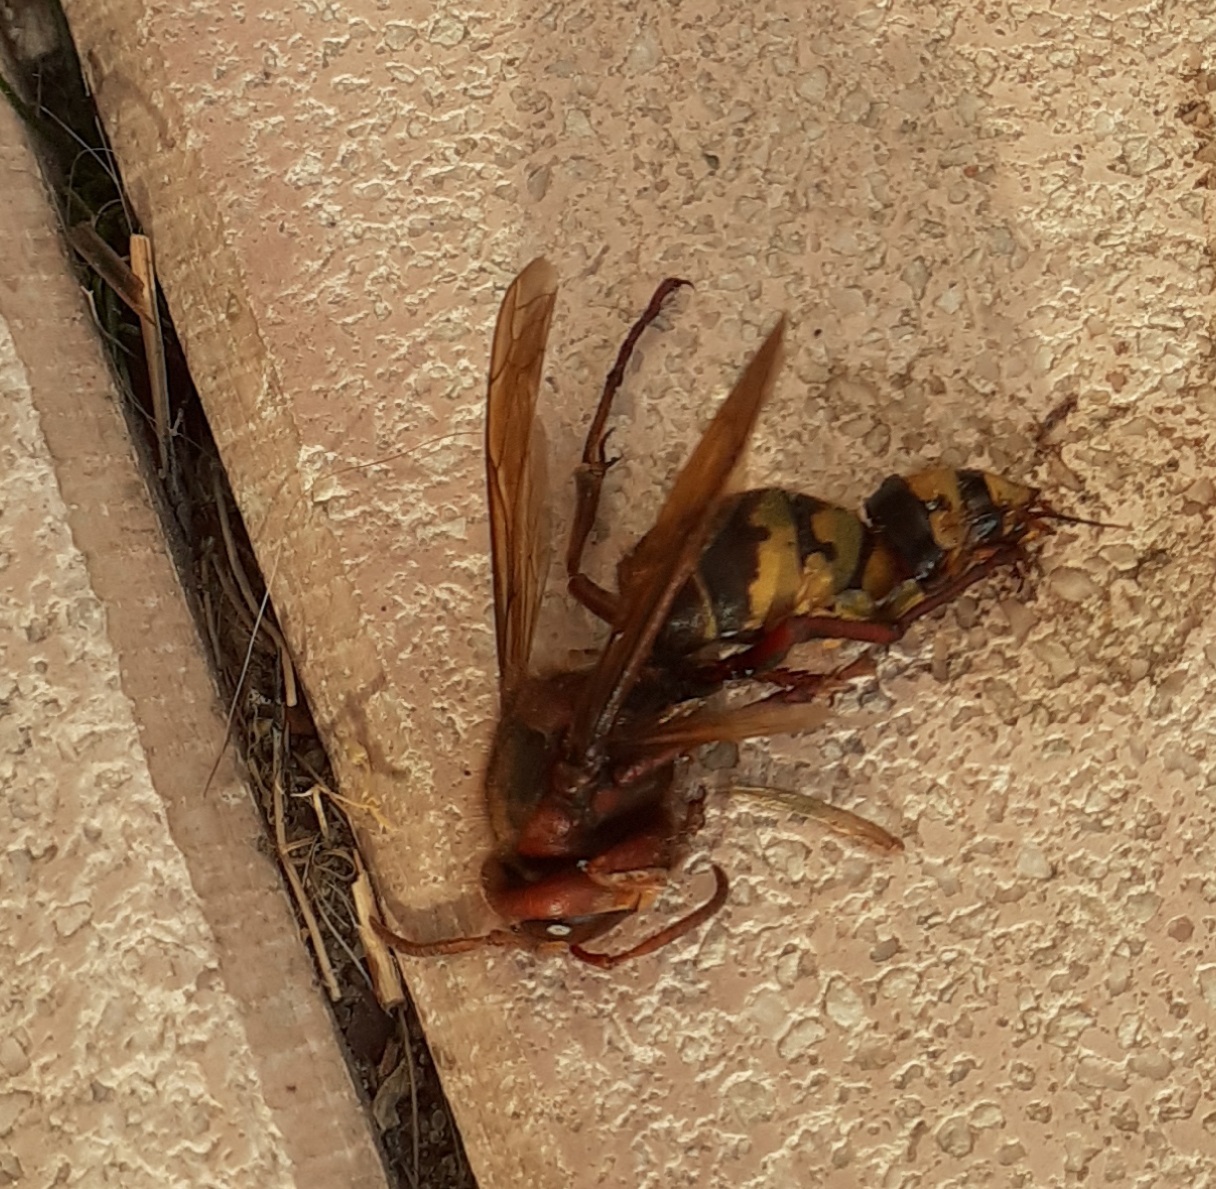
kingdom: Animalia
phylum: Arthropoda
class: Insecta
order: Hymenoptera
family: Vespidae
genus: Vespa
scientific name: Vespa crabro
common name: Hornet
